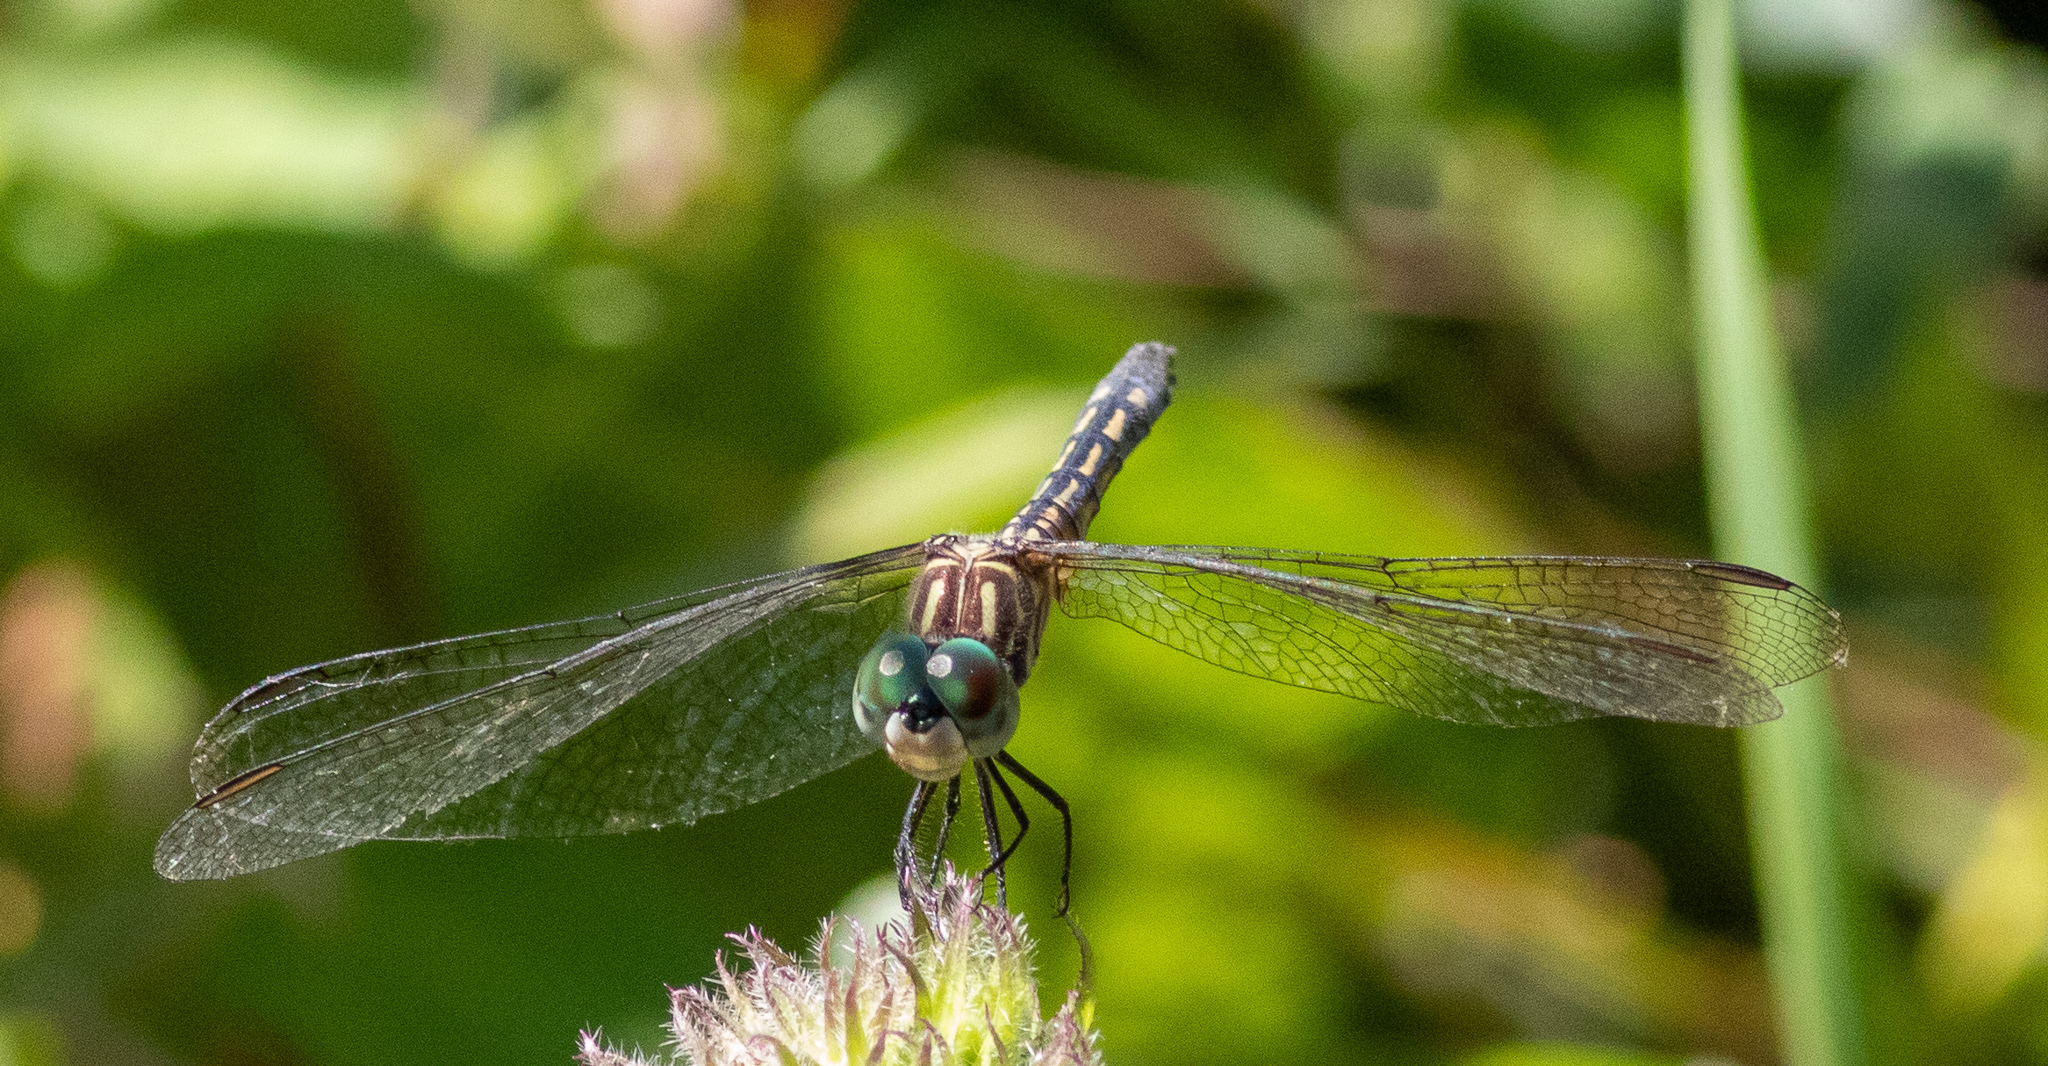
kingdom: Animalia
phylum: Arthropoda
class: Insecta
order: Odonata
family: Libellulidae
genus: Pachydiplax
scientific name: Pachydiplax longipennis
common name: Blue dasher
